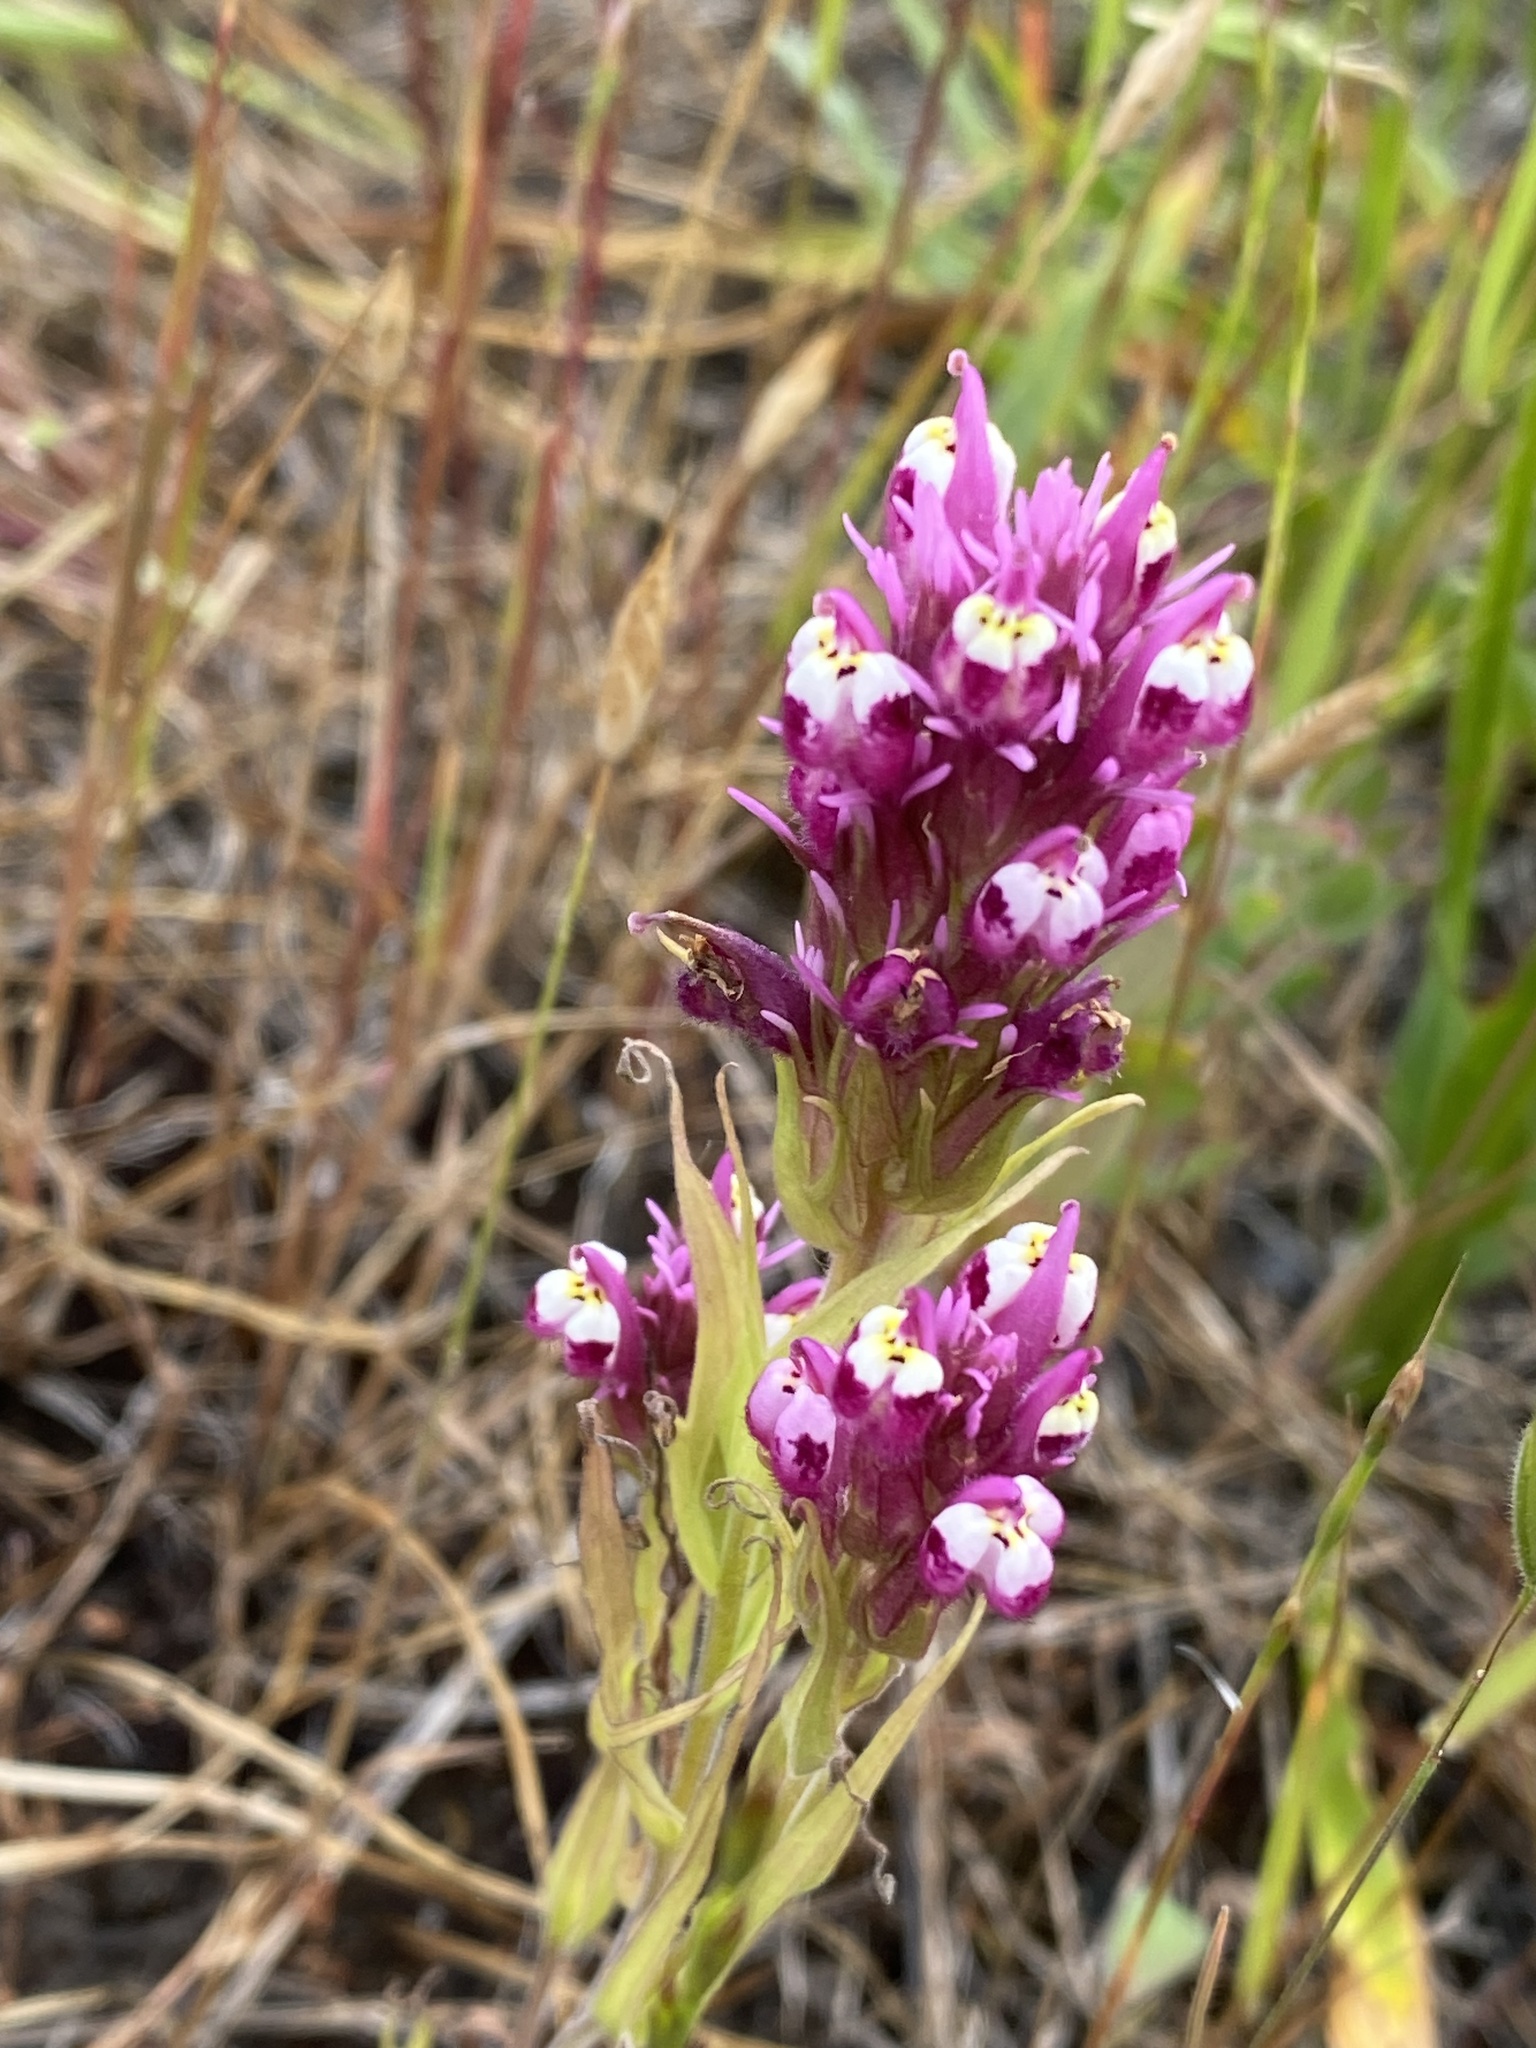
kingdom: Plantae
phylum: Tracheophyta
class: Magnoliopsida
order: Lamiales
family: Orobanchaceae
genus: Castilleja
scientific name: Castilleja densiflora
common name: Dense-flower indian paintbrush
